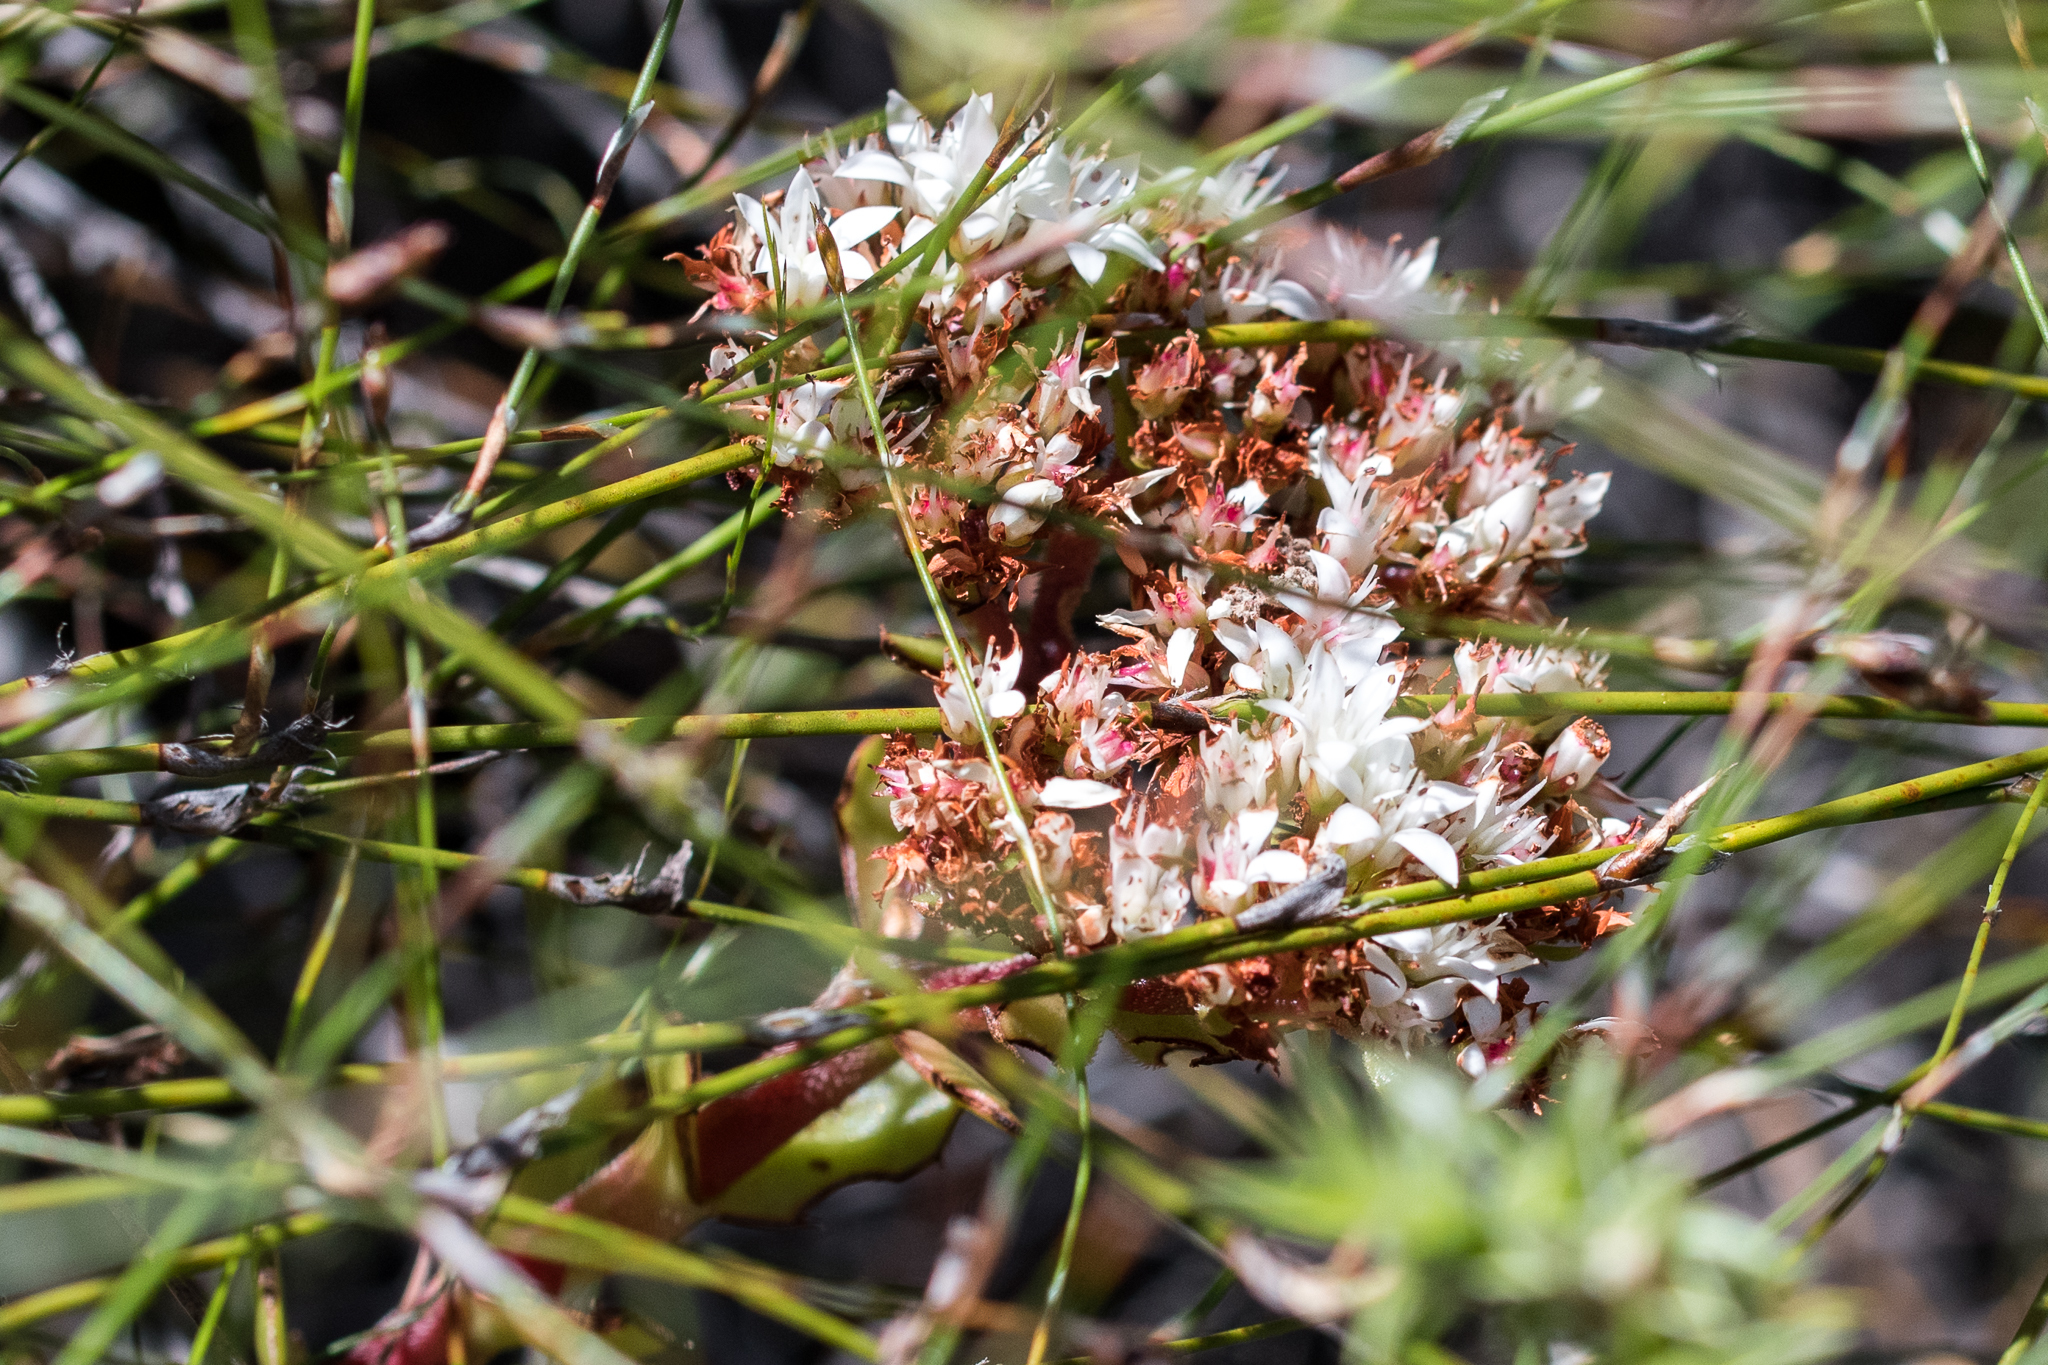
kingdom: Plantae
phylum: Tracheophyta
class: Magnoliopsida
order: Saxifragales
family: Crassulaceae
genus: Crassula
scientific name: Crassula undulata
